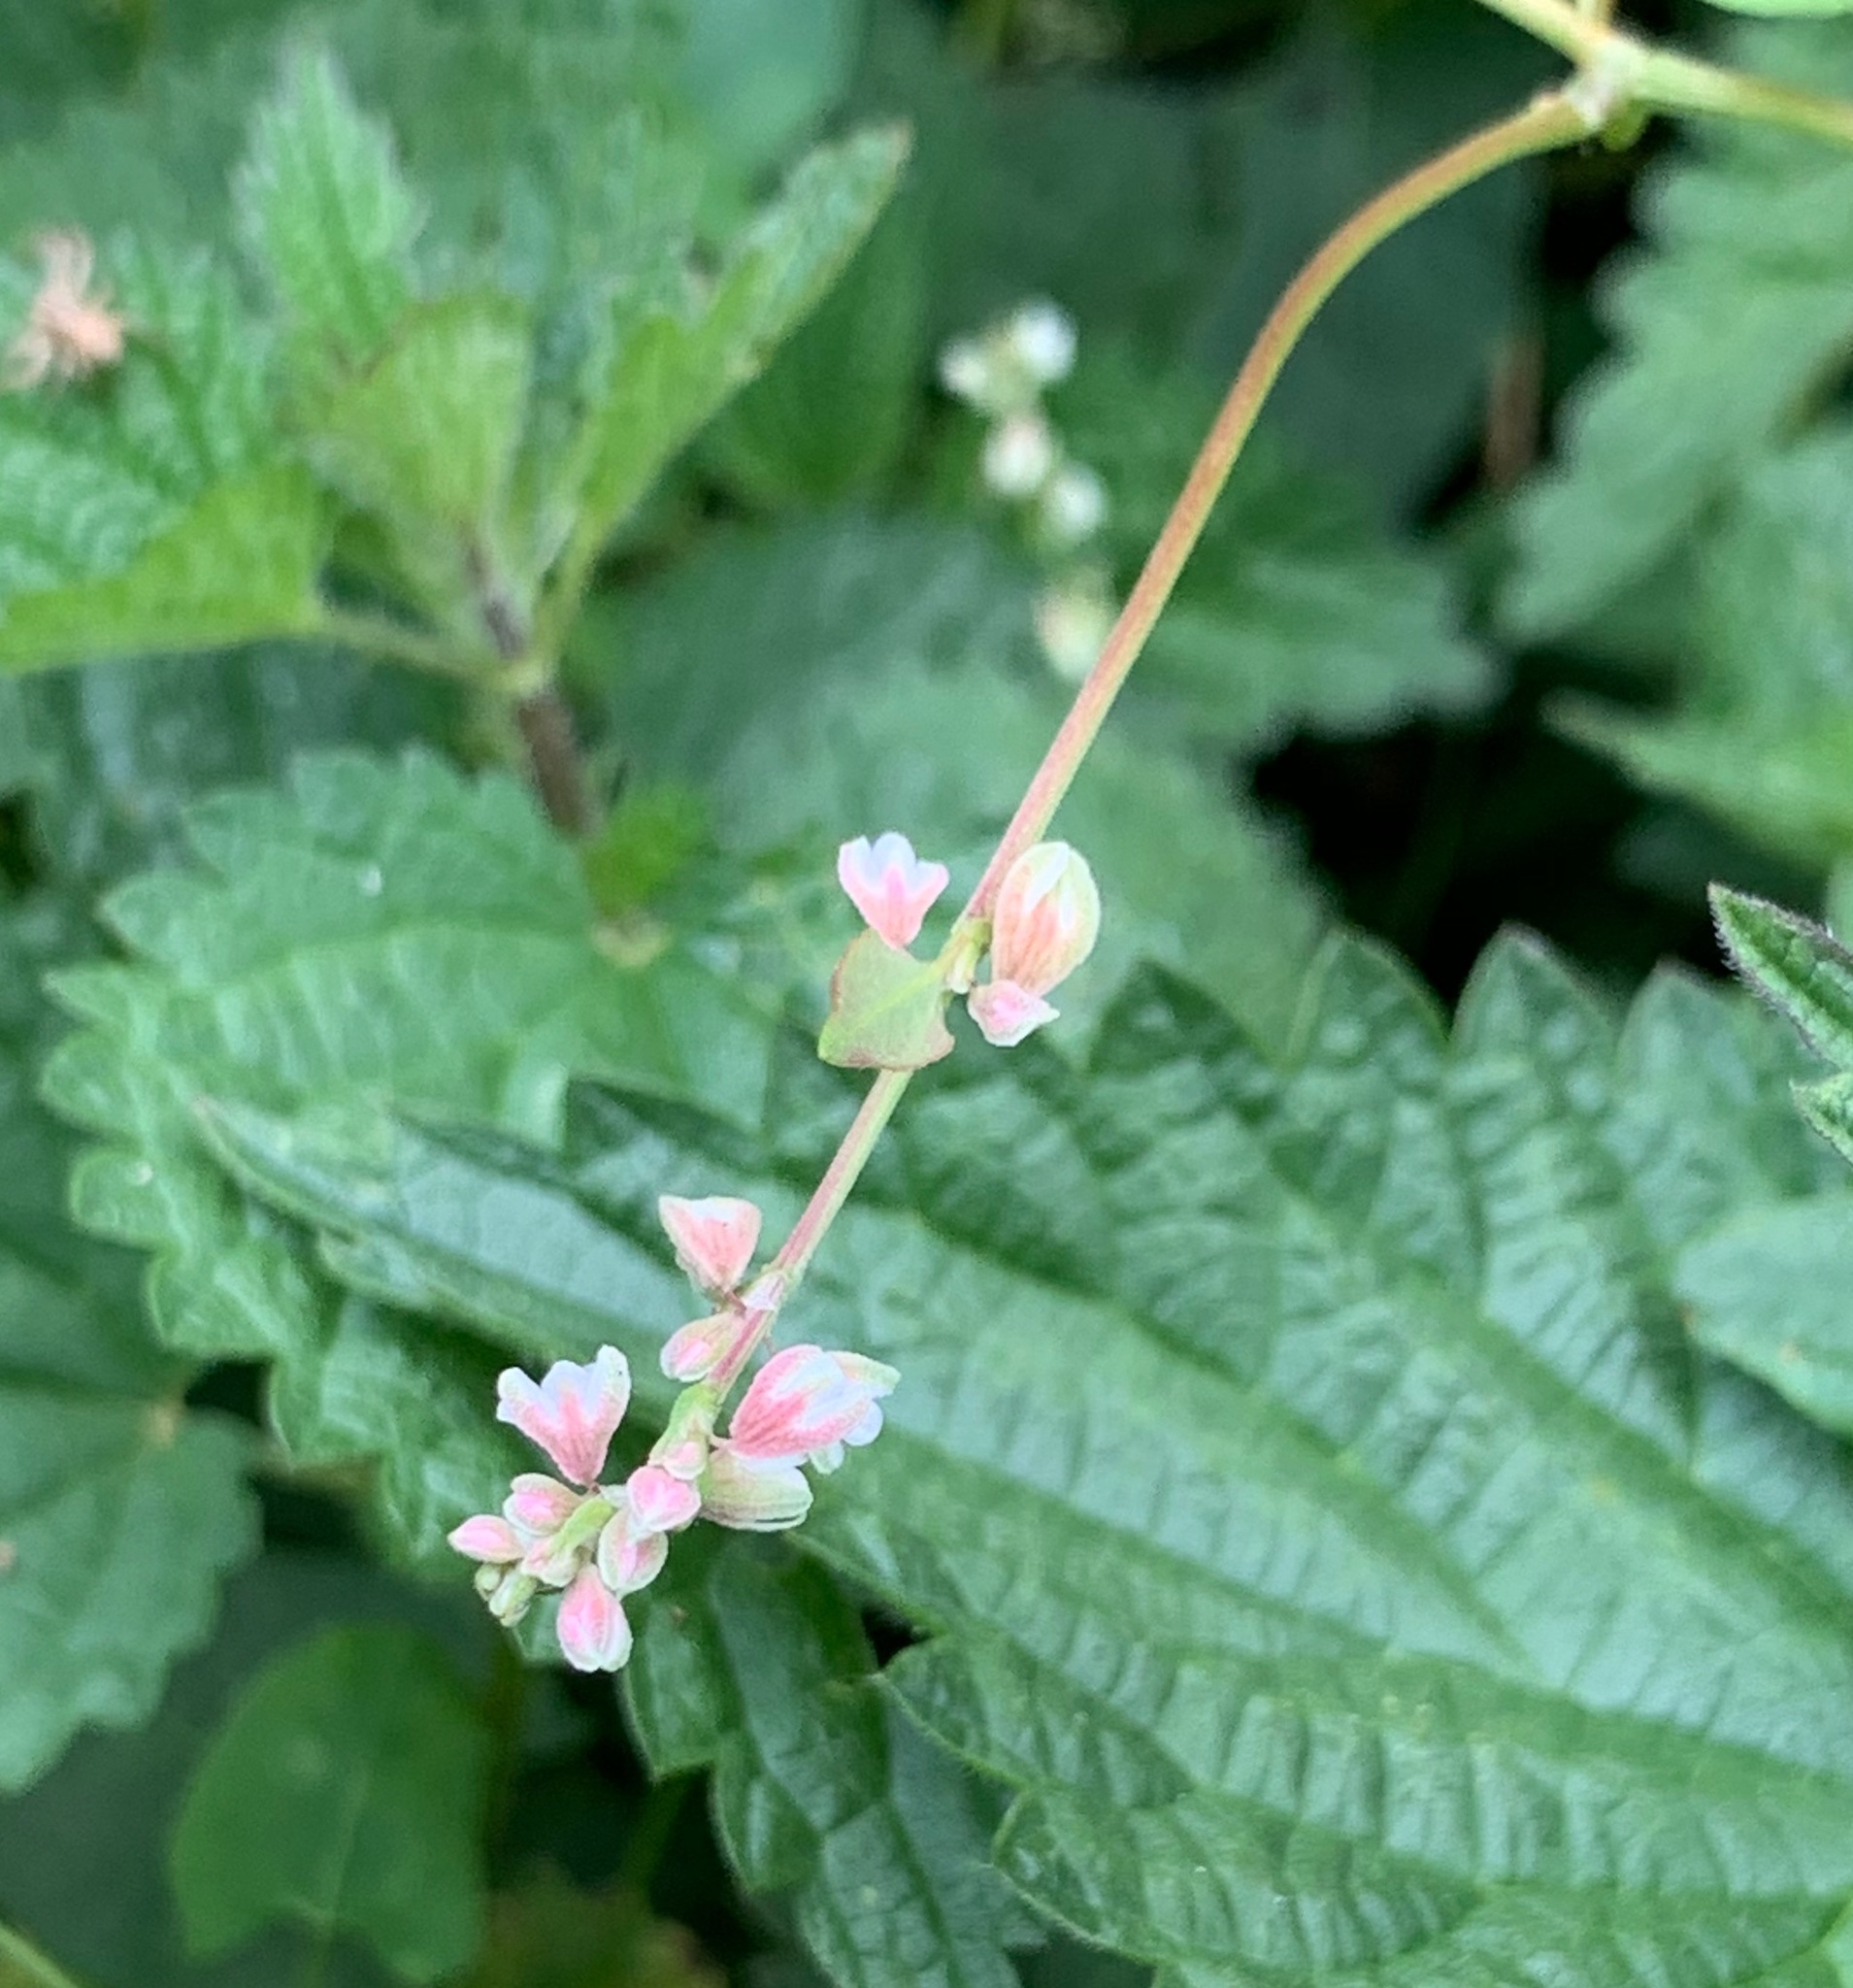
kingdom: Plantae
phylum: Tracheophyta
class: Magnoliopsida
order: Caryophyllales
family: Polygonaceae
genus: Fallopia
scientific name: Fallopia convolvulus
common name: Black bindweed
